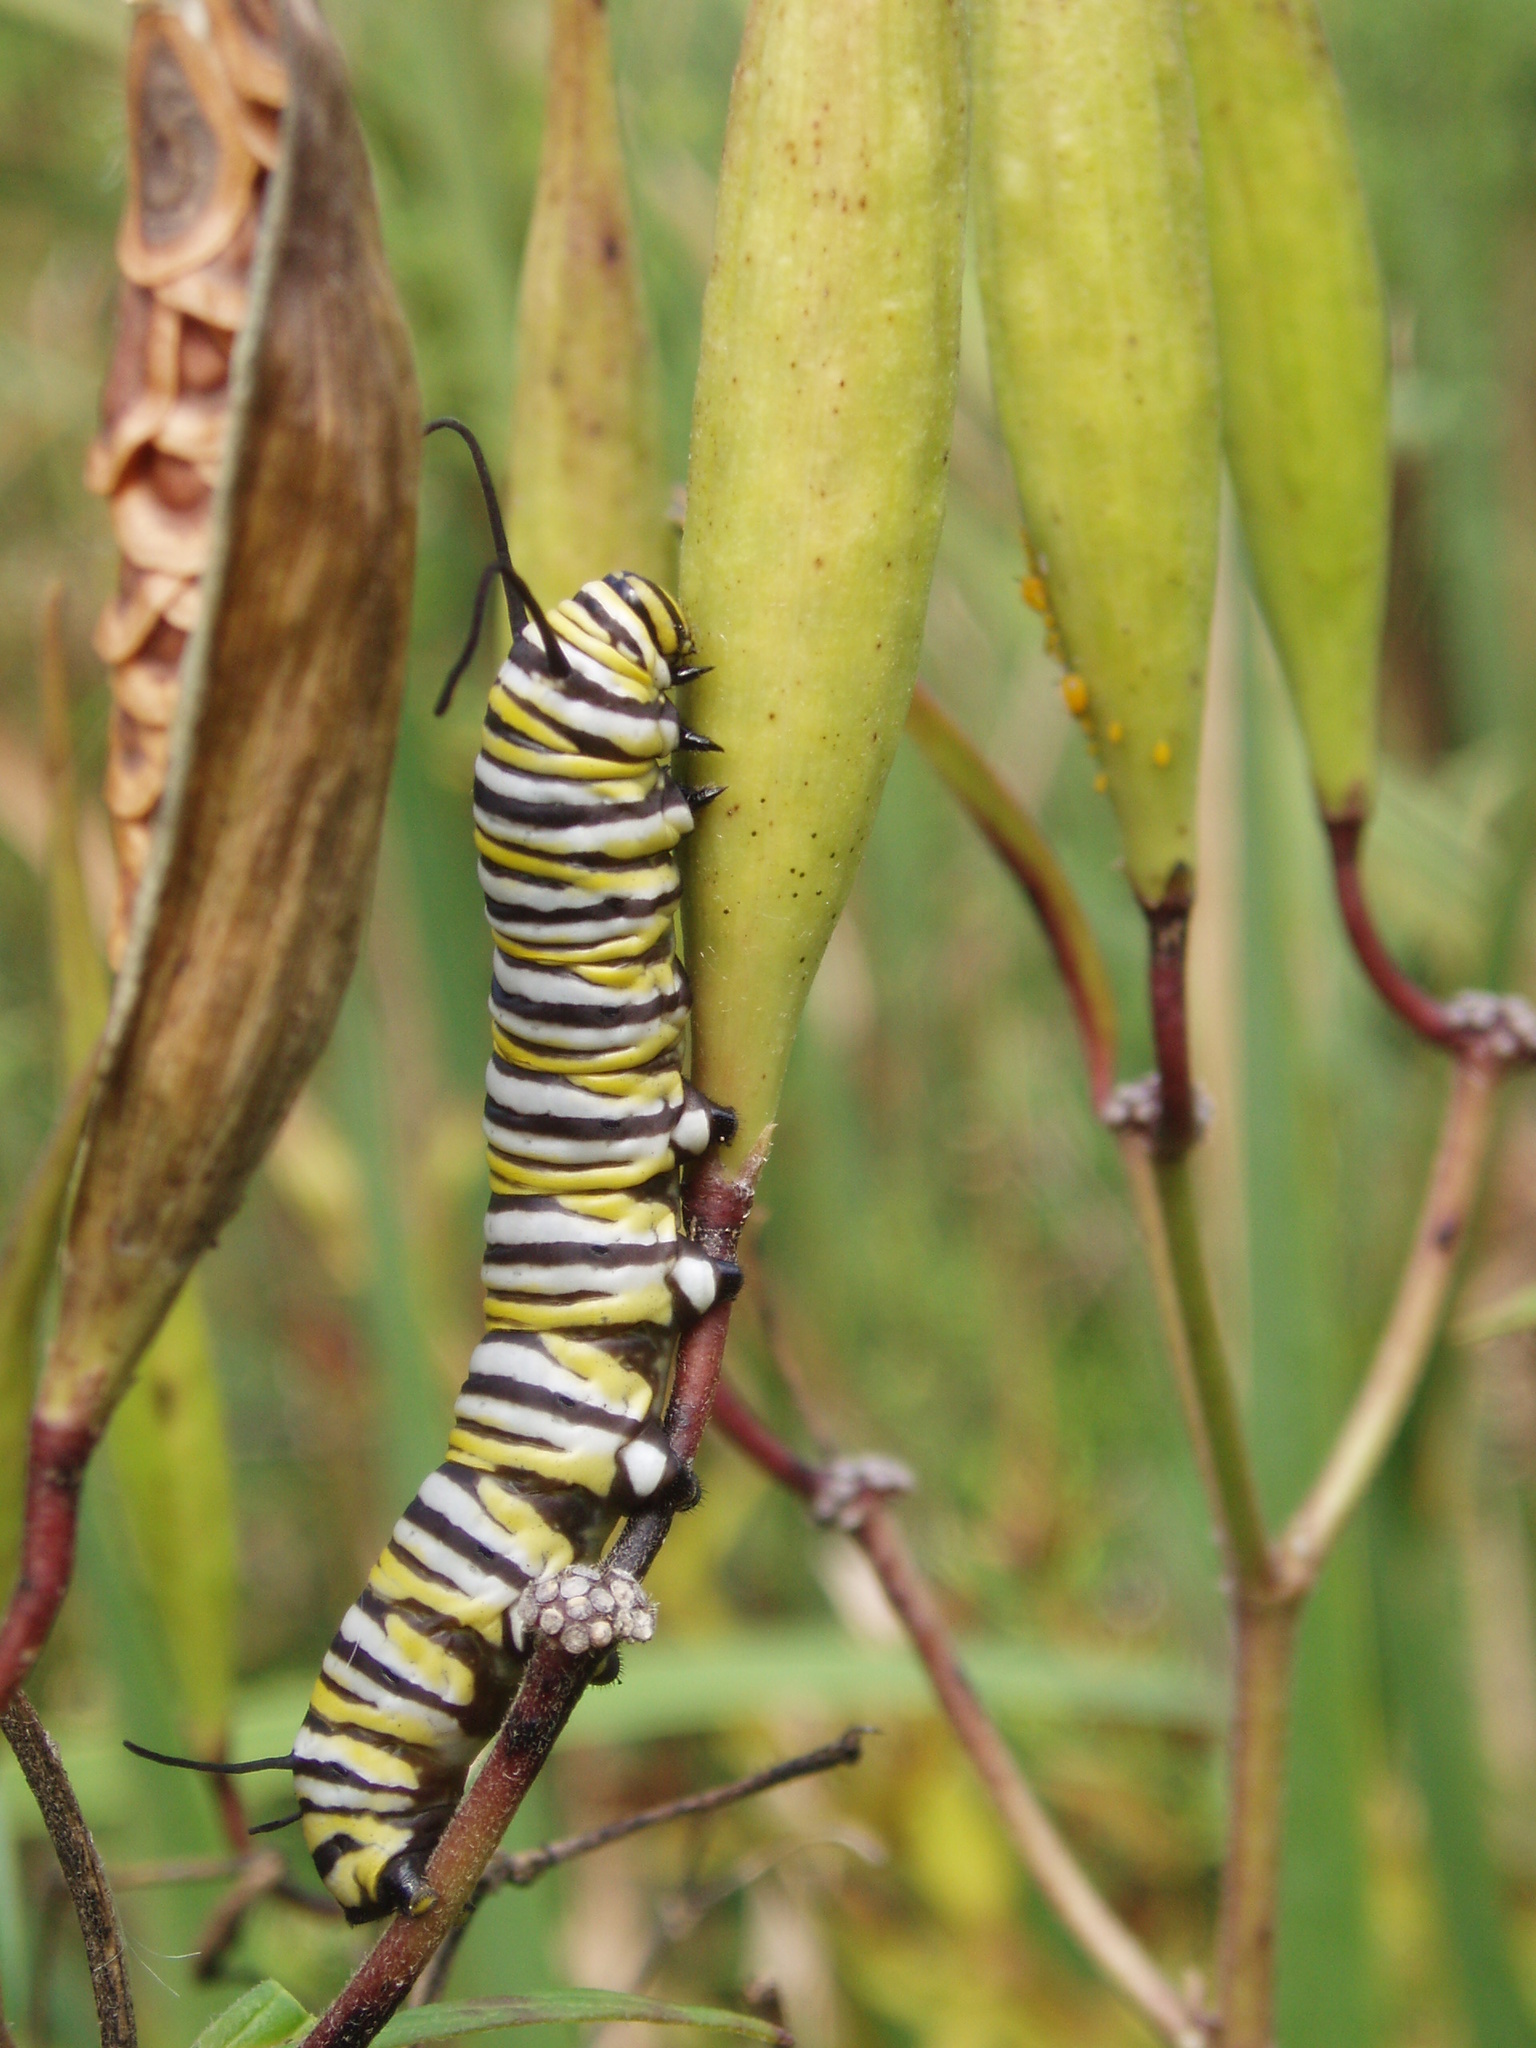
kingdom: Animalia
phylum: Arthropoda
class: Insecta
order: Lepidoptera
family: Nymphalidae
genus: Danaus
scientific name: Danaus plexippus
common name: Monarch
